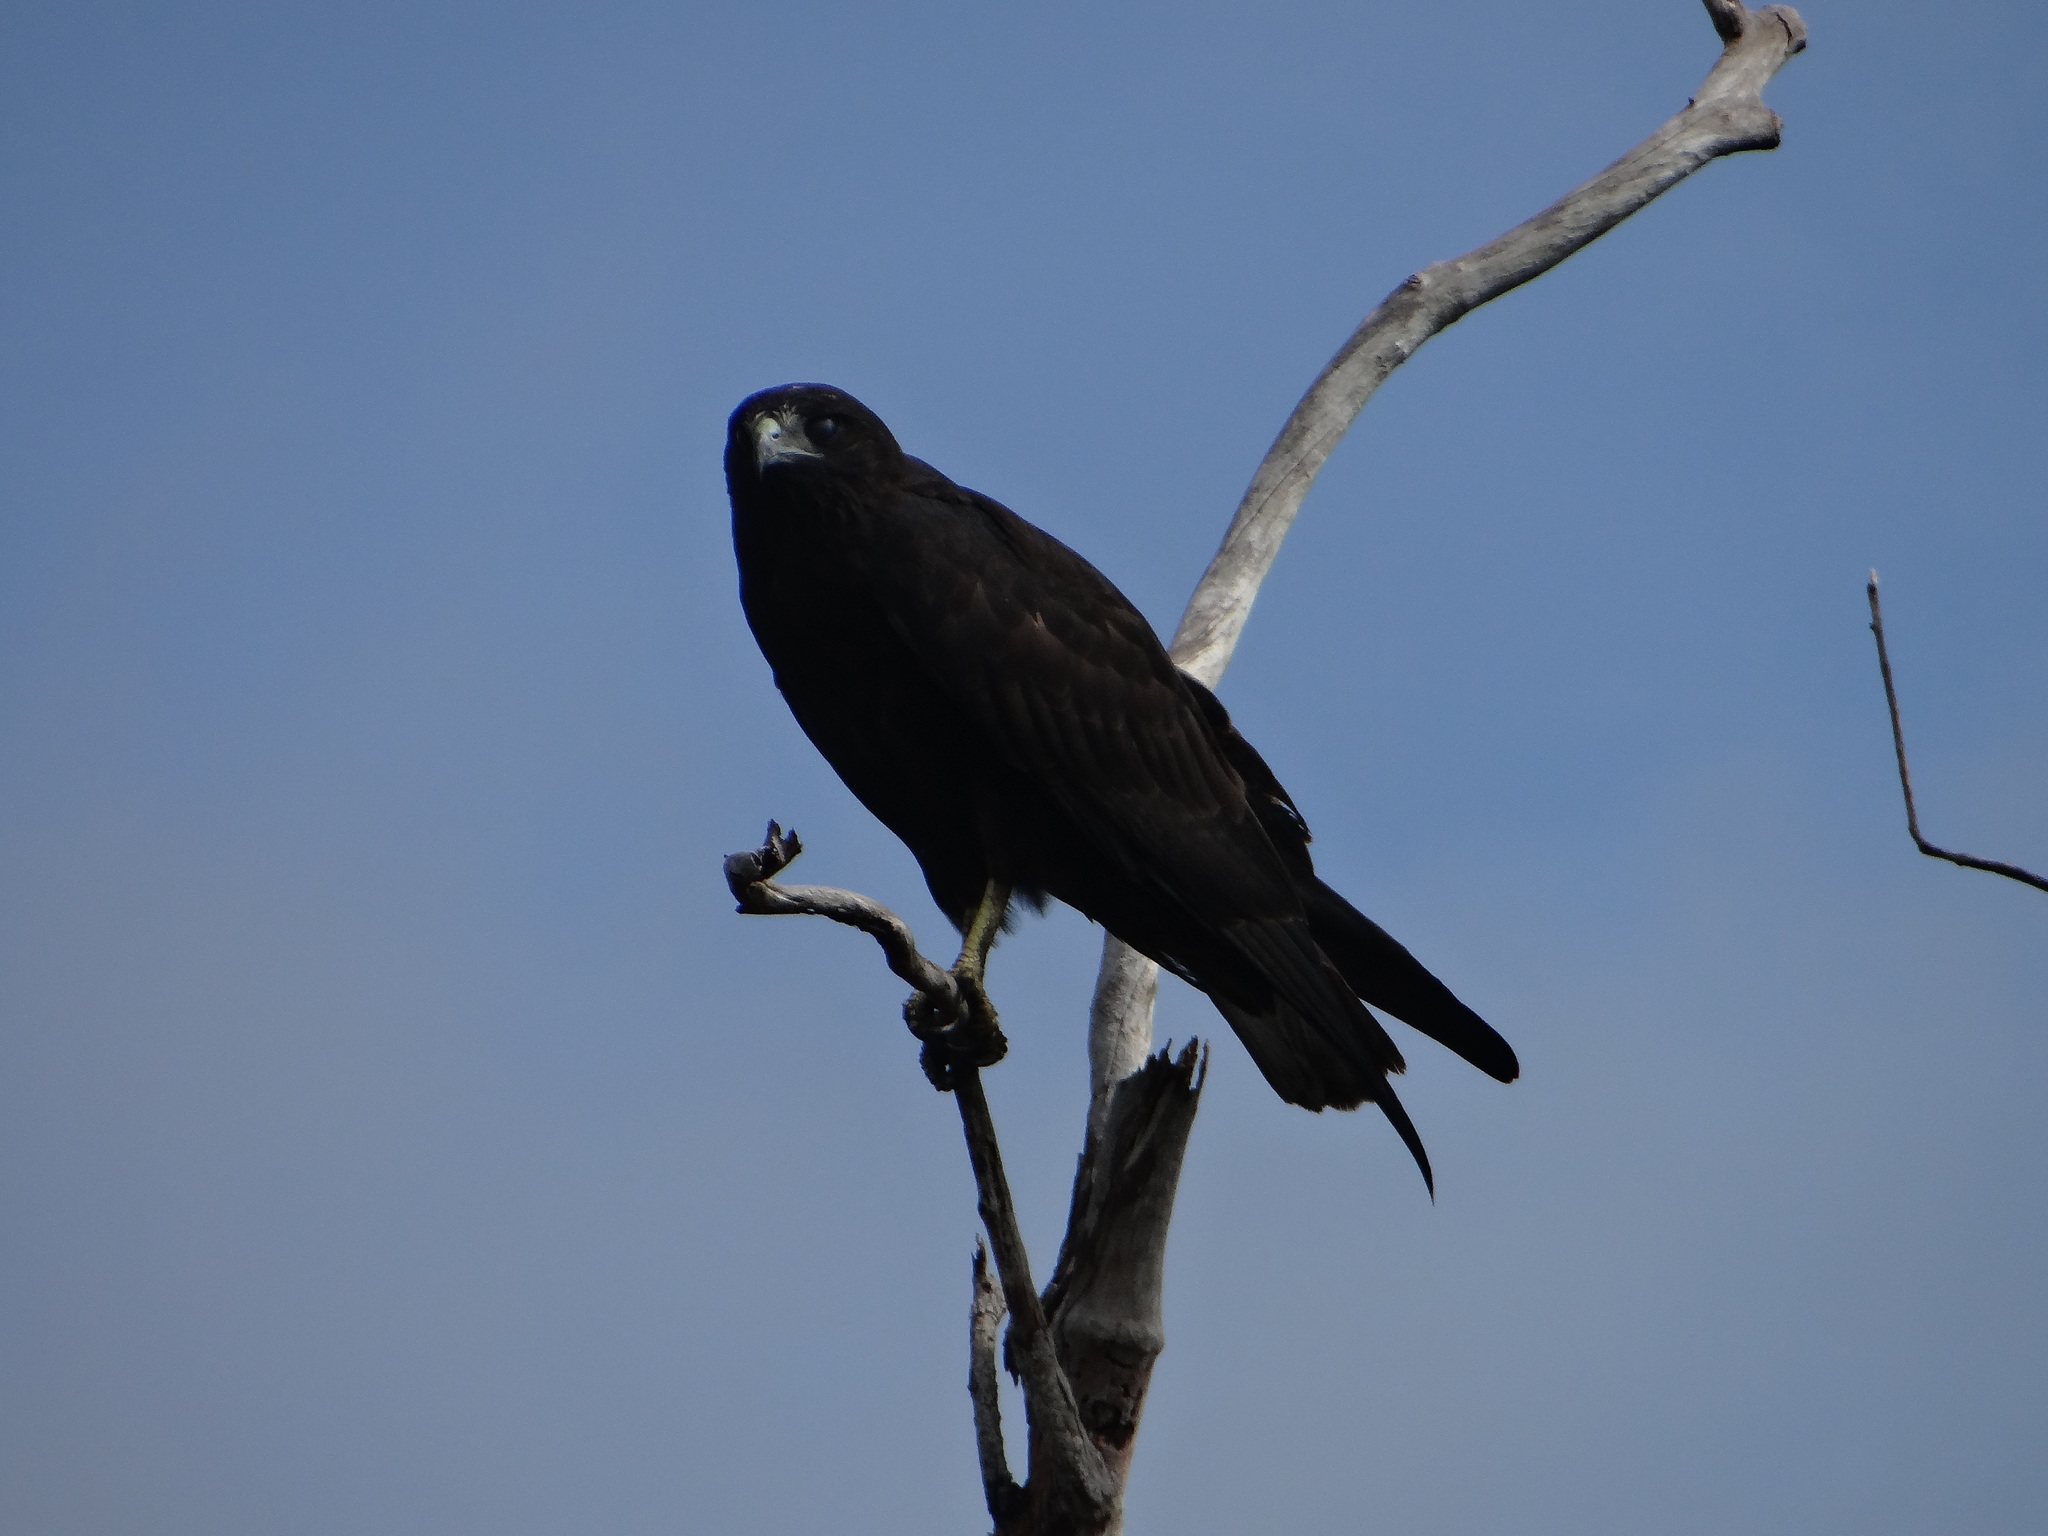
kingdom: Animalia
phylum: Chordata
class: Aves
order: Accipitriformes
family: Accipitridae
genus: Buteogallus
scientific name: Buteogallus urubitinga
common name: Great black hawk
